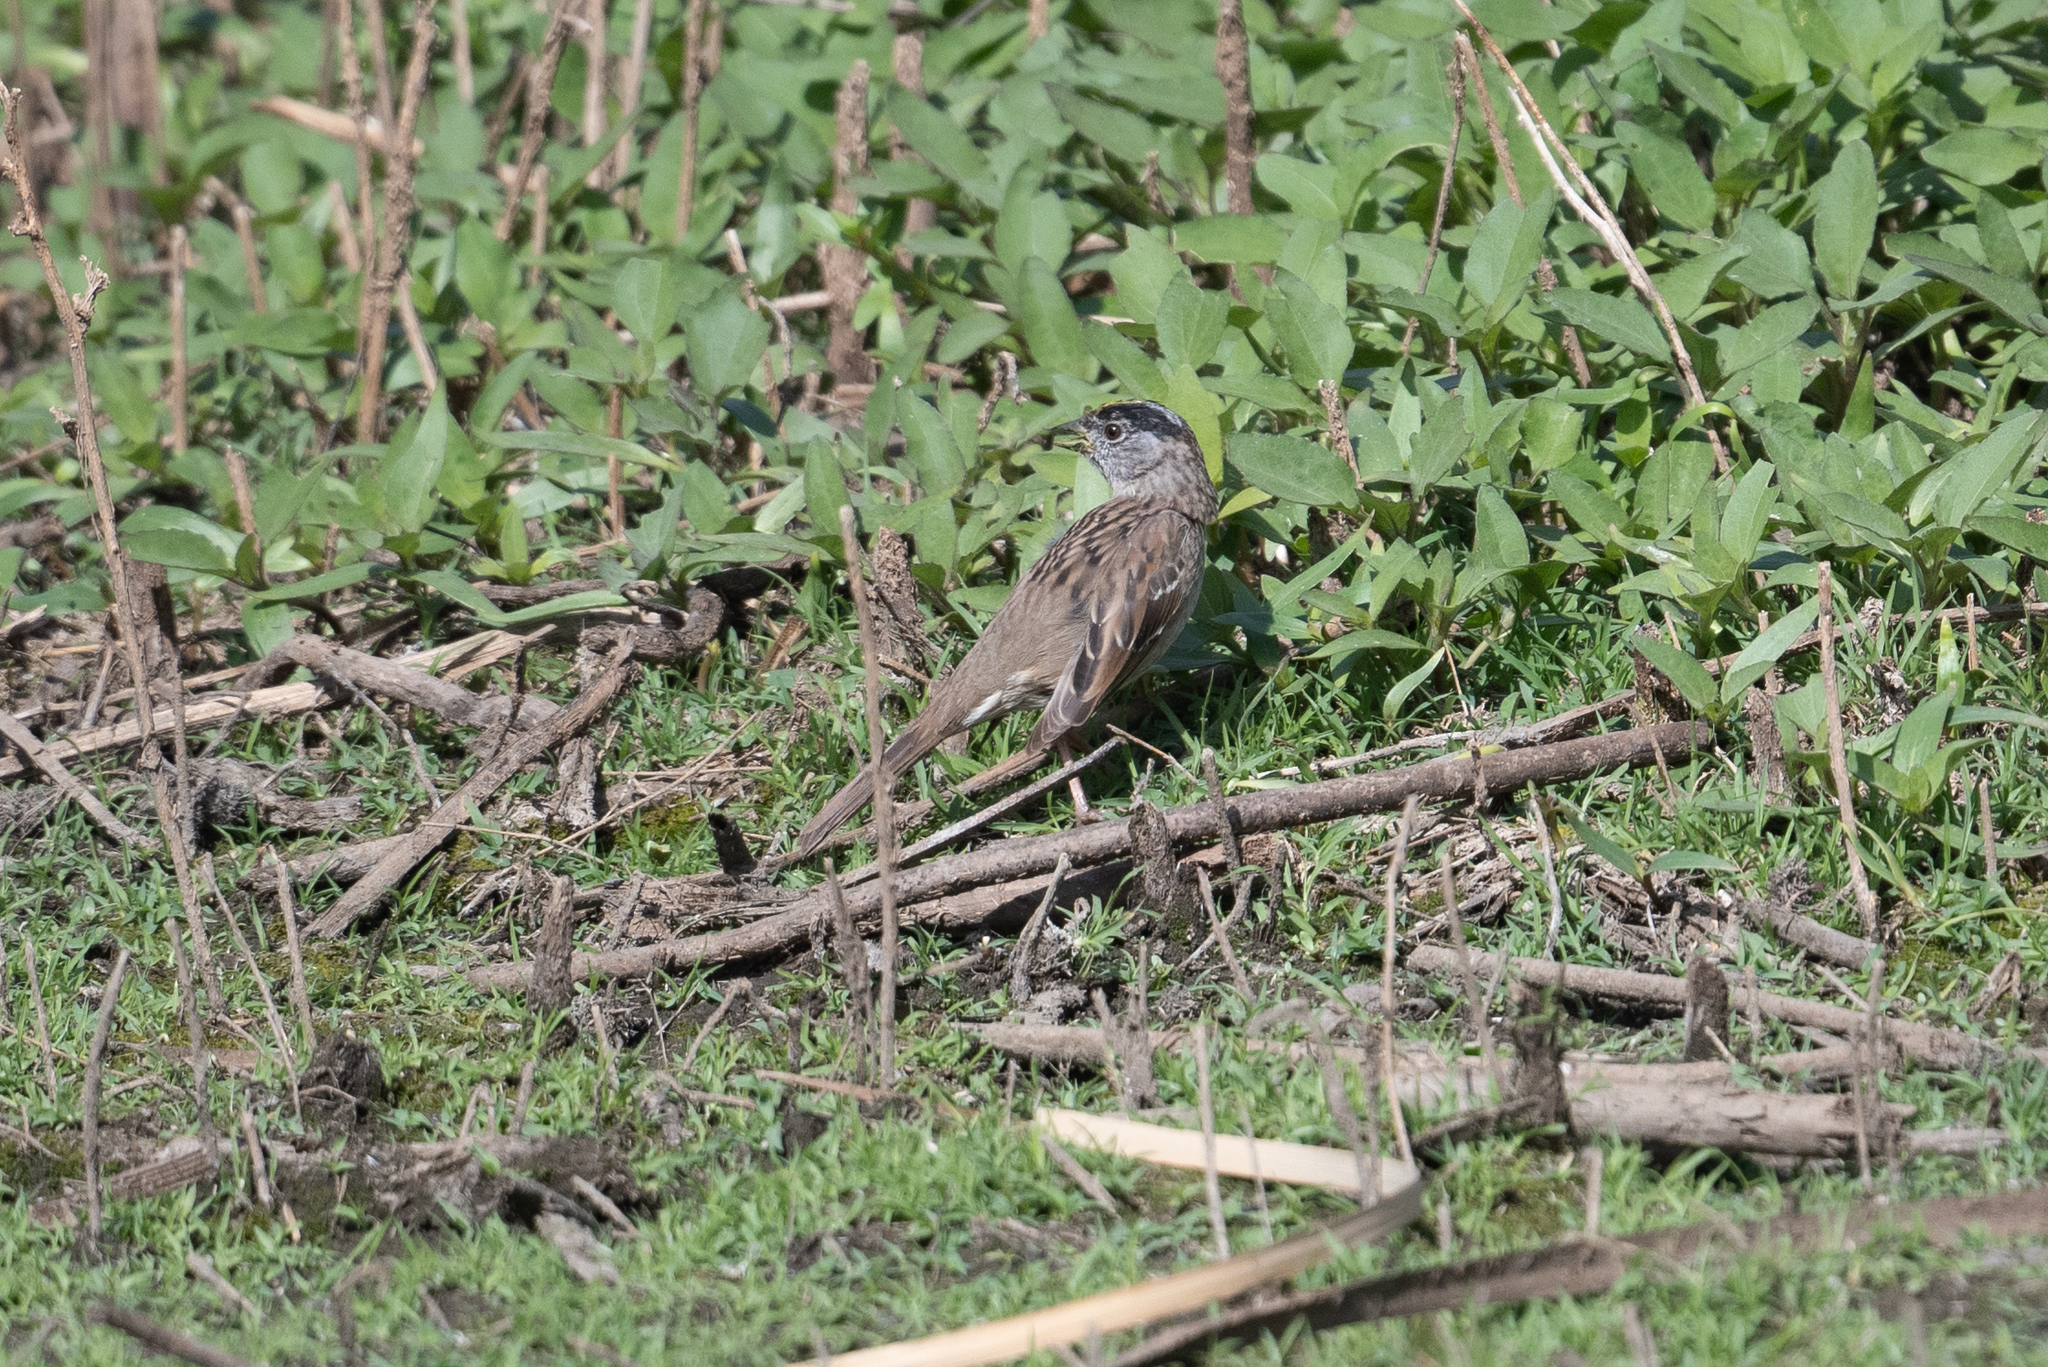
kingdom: Animalia
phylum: Chordata
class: Aves
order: Passeriformes
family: Passerellidae
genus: Zonotrichia
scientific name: Zonotrichia atricapilla
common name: Golden-crowned sparrow
